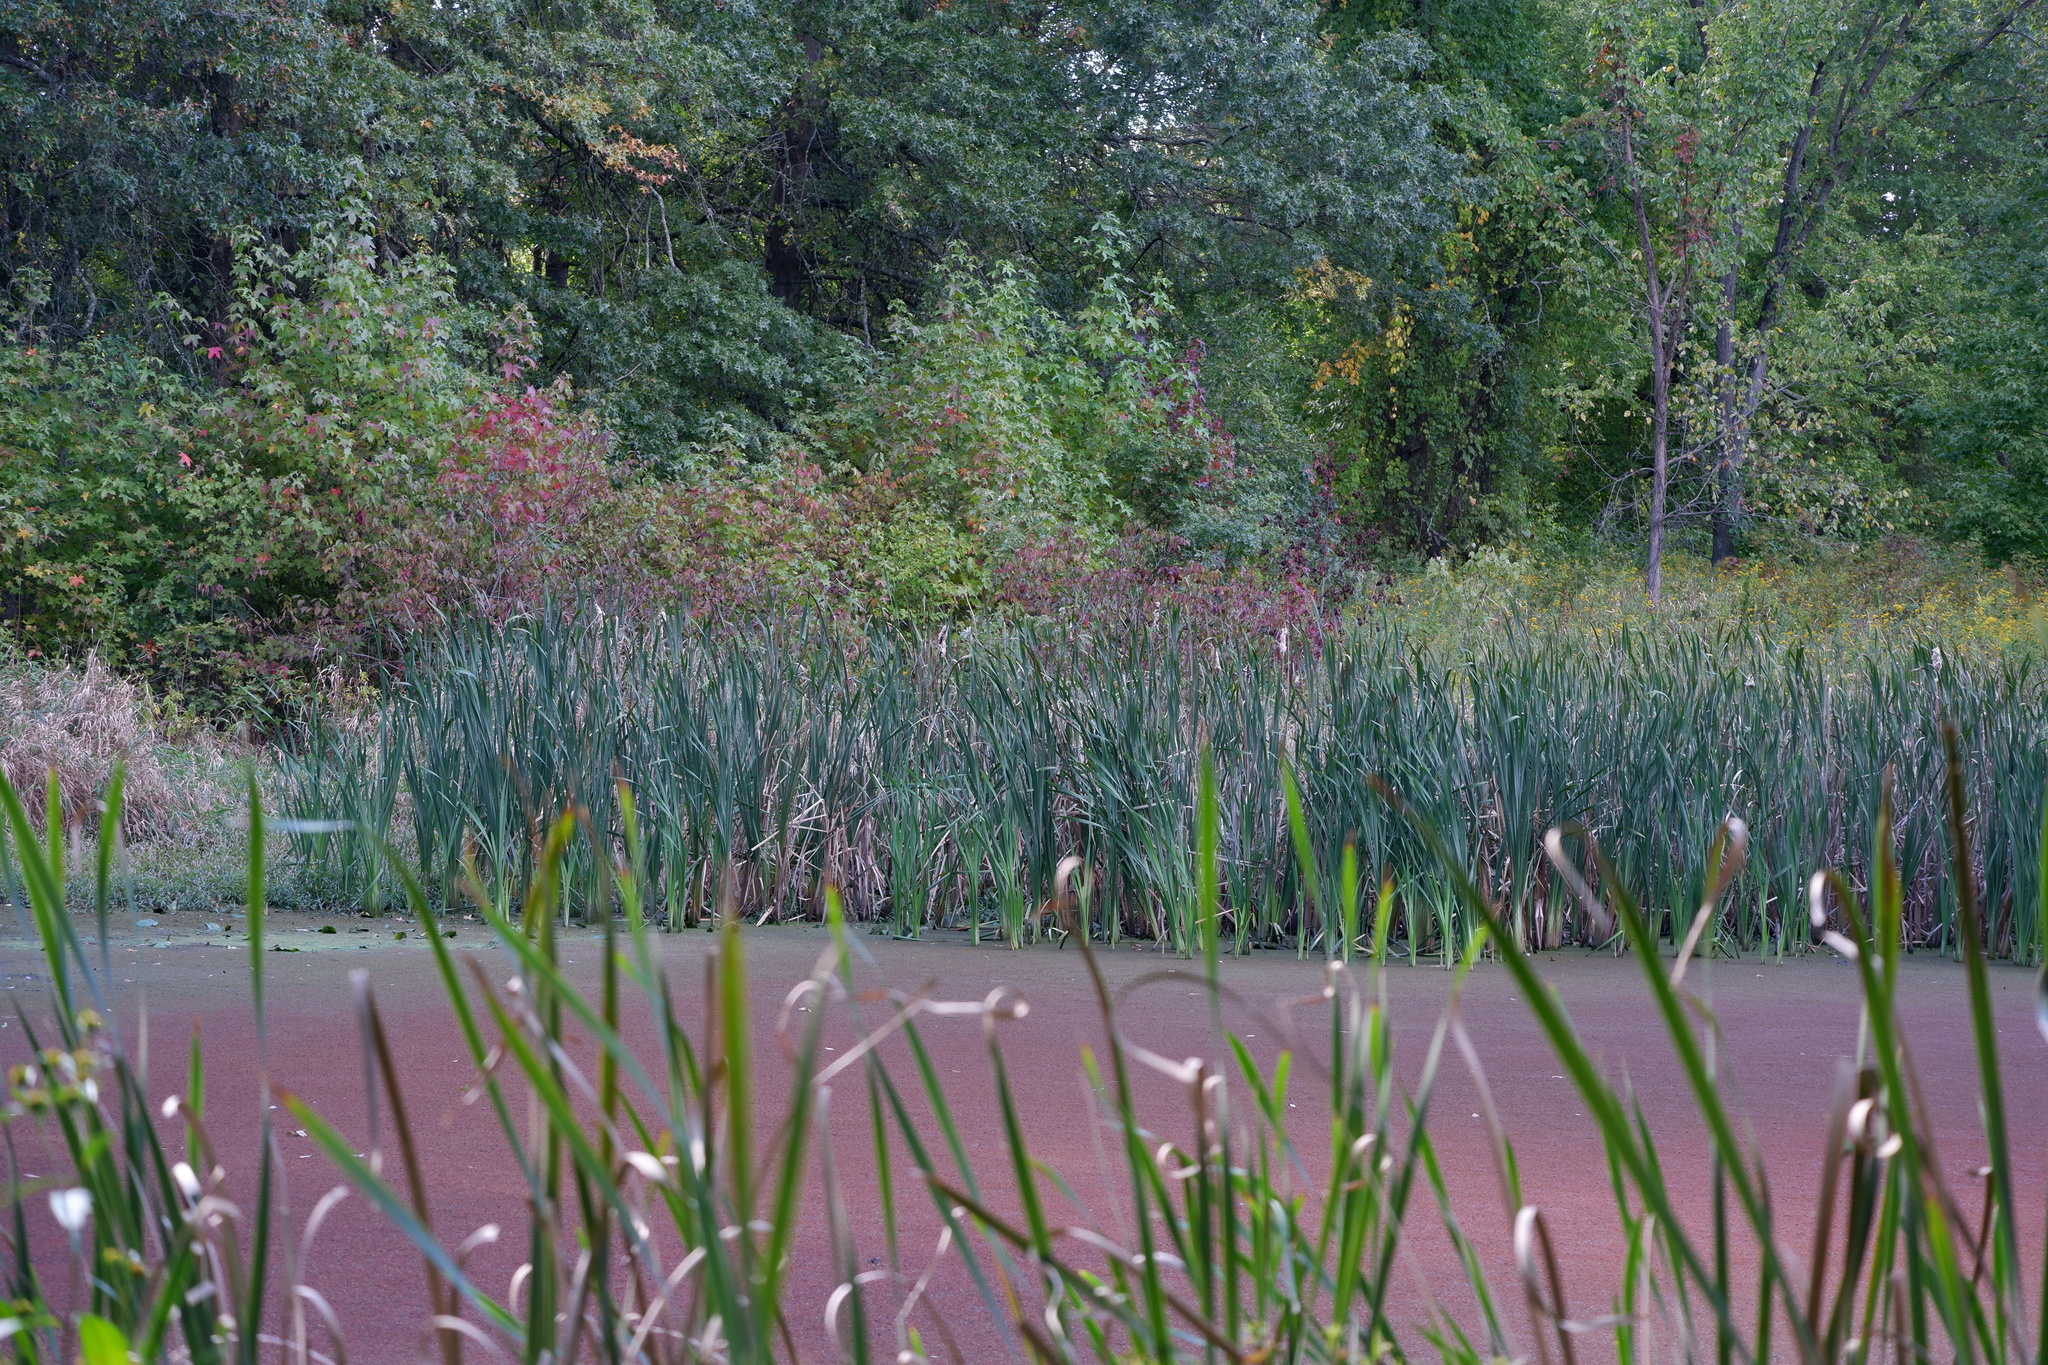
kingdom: Plantae
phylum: Tracheophyta
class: Polypodiopsida
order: Salviniales
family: Salviniaceae
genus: Azolla
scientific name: Azolla cristata
